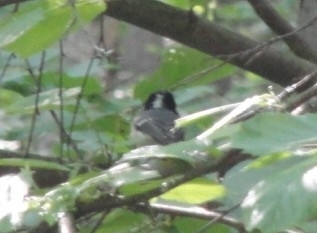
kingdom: Animalia
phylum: Chordata
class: Aves
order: Passeriformes
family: Paridae
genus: Periparus
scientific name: Periparus ater
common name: Coal tit
